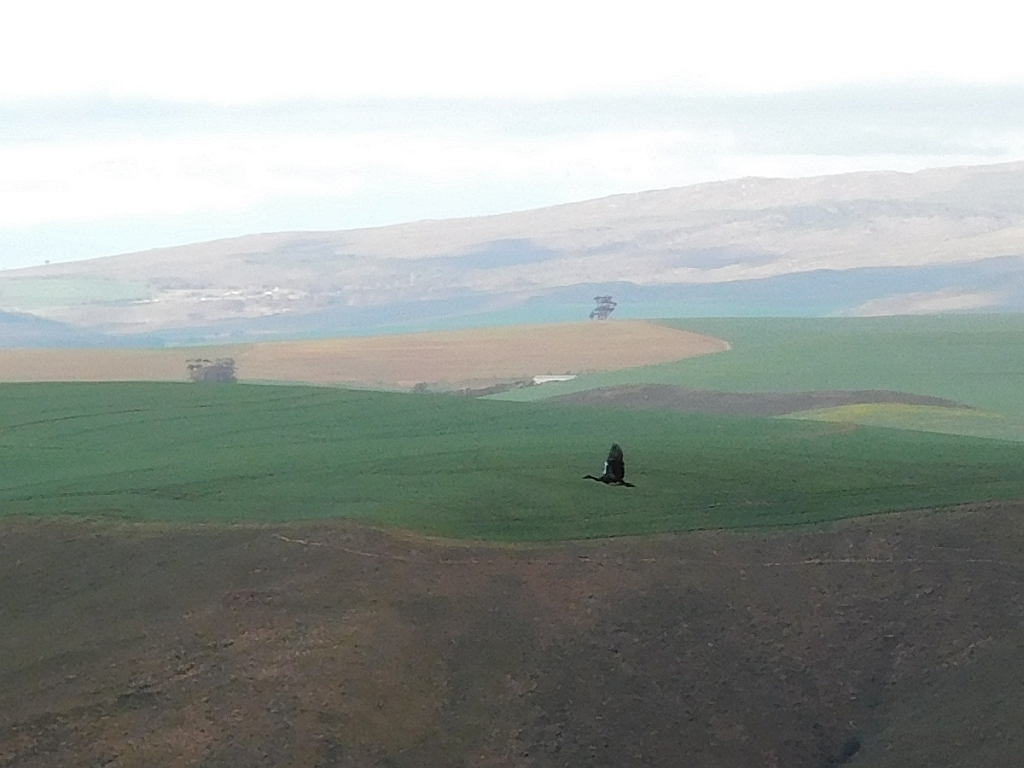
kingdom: Animalia
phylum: Chordata
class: Aves
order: Anseriformes
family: Anatidae
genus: Plectropterus
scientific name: Plectropterus gambensis
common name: Spur-winged goose
